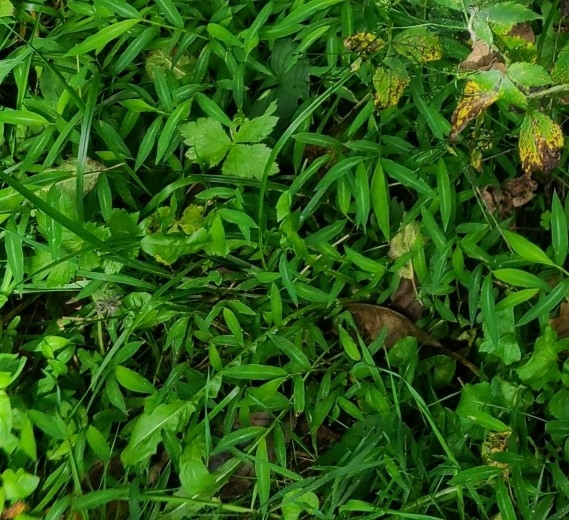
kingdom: Plantae
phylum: Tracheophyta
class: Liliopsida
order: Poales
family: Poaceae
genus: Microstegium
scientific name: Microstegium vimineum
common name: Japanese stiltgrass
